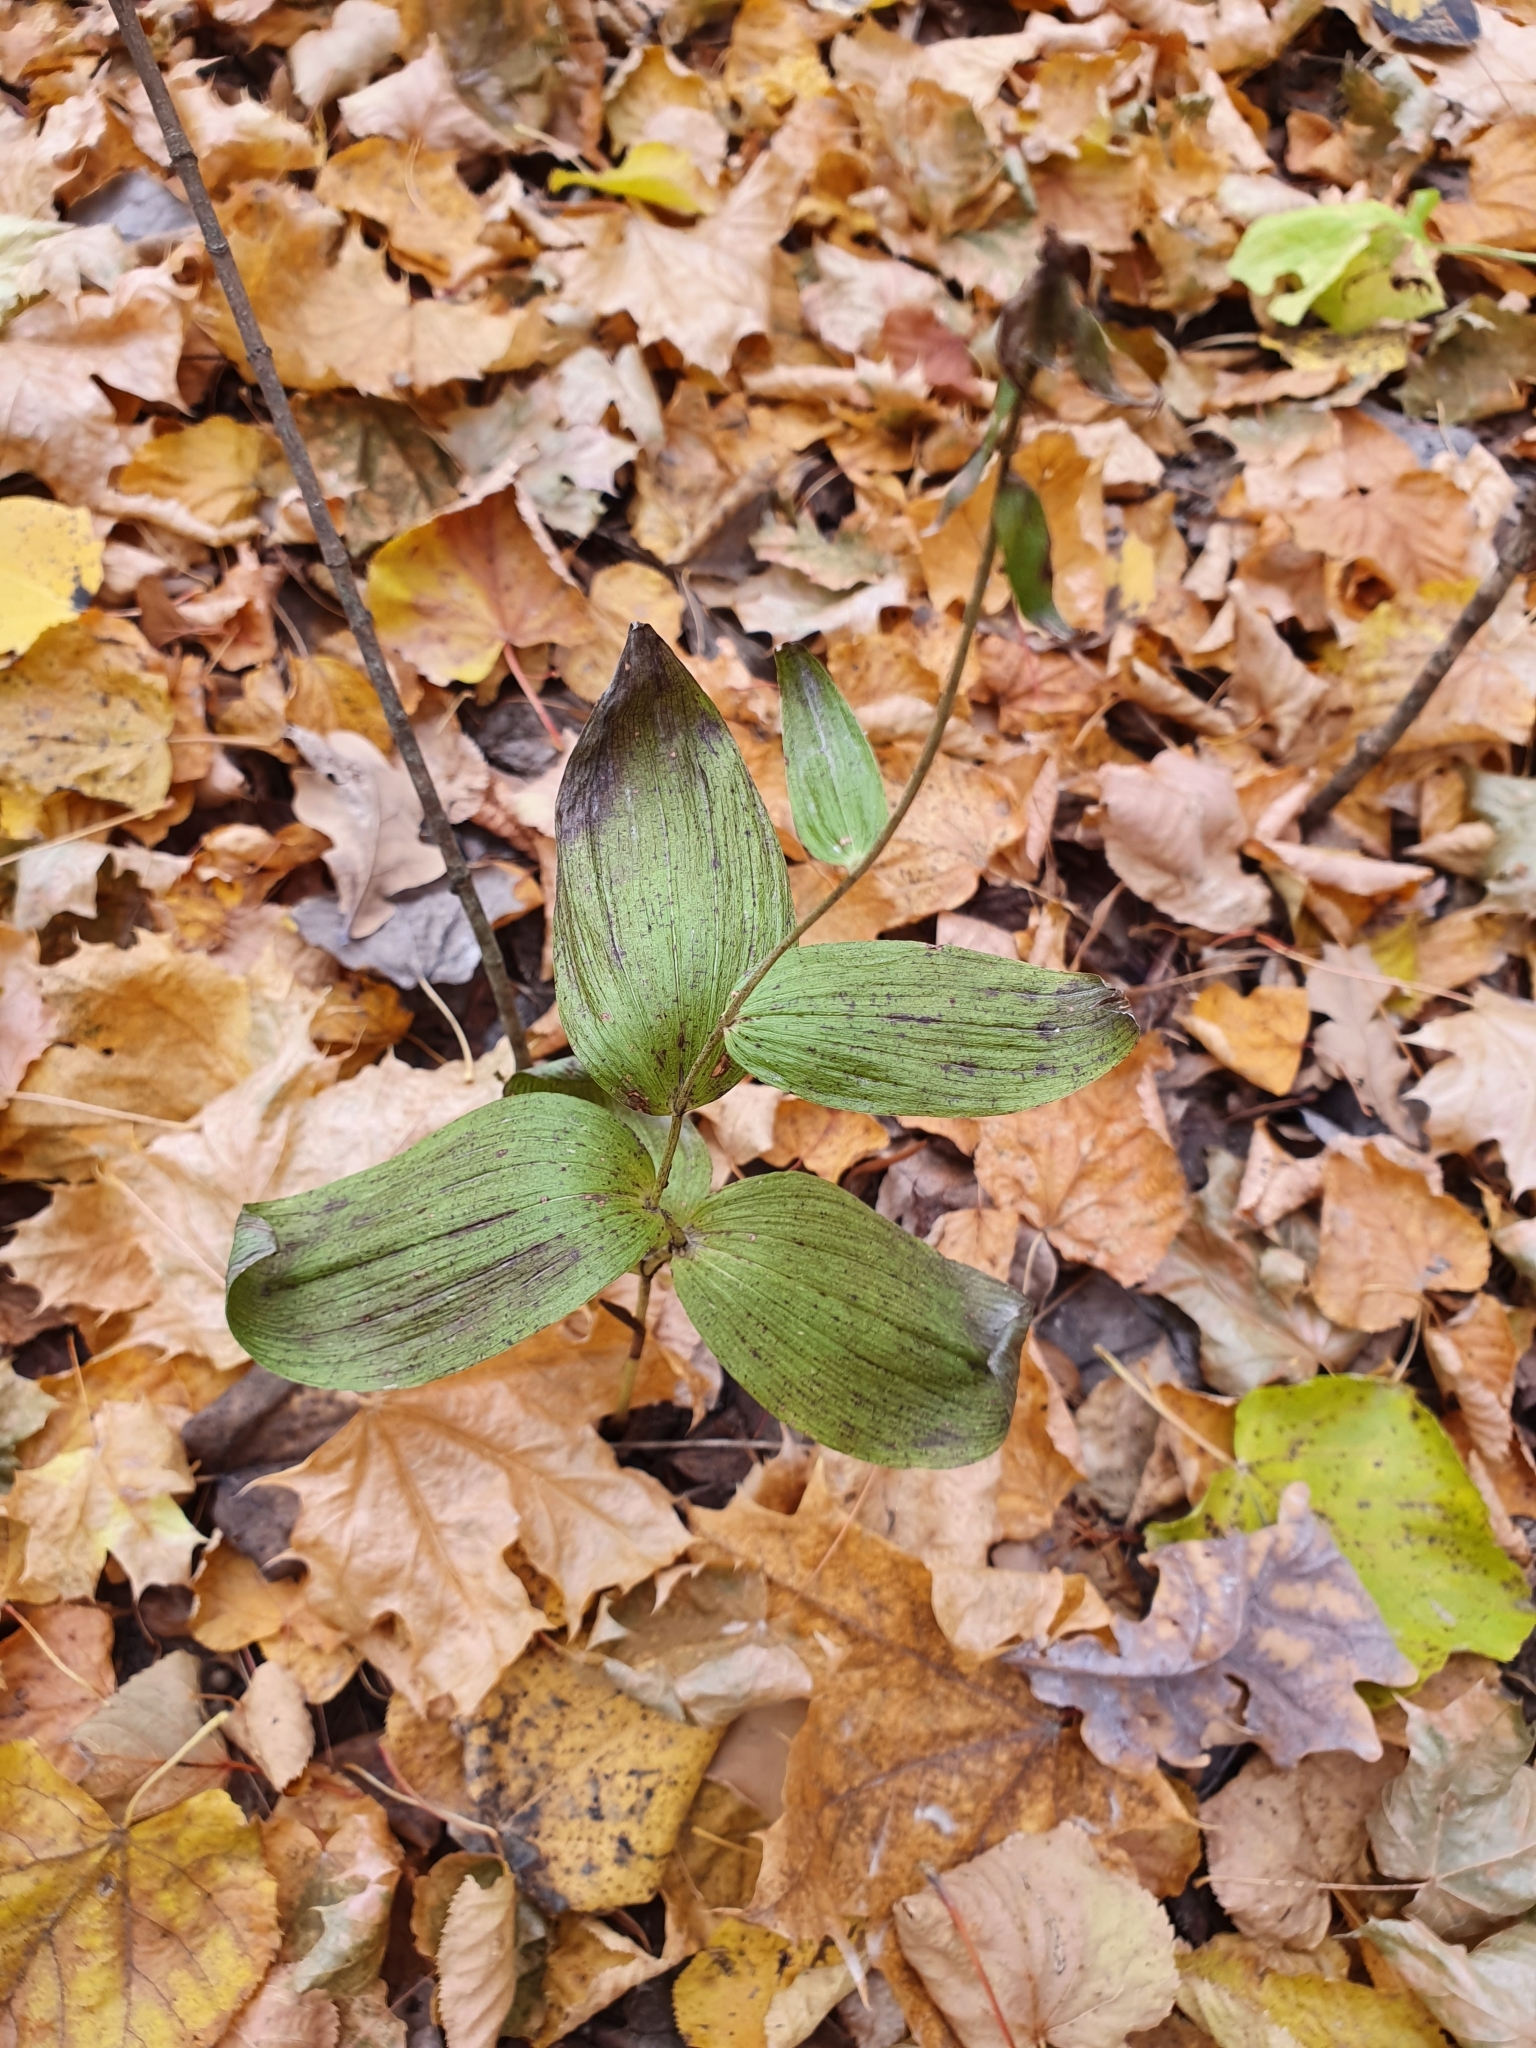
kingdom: Plantae
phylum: Tracheophyta
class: Liliopsida
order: Asparagales
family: Orchidaceae
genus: Epipactis
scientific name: Epipactis helleborine
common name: Broad-leaved helleborine
